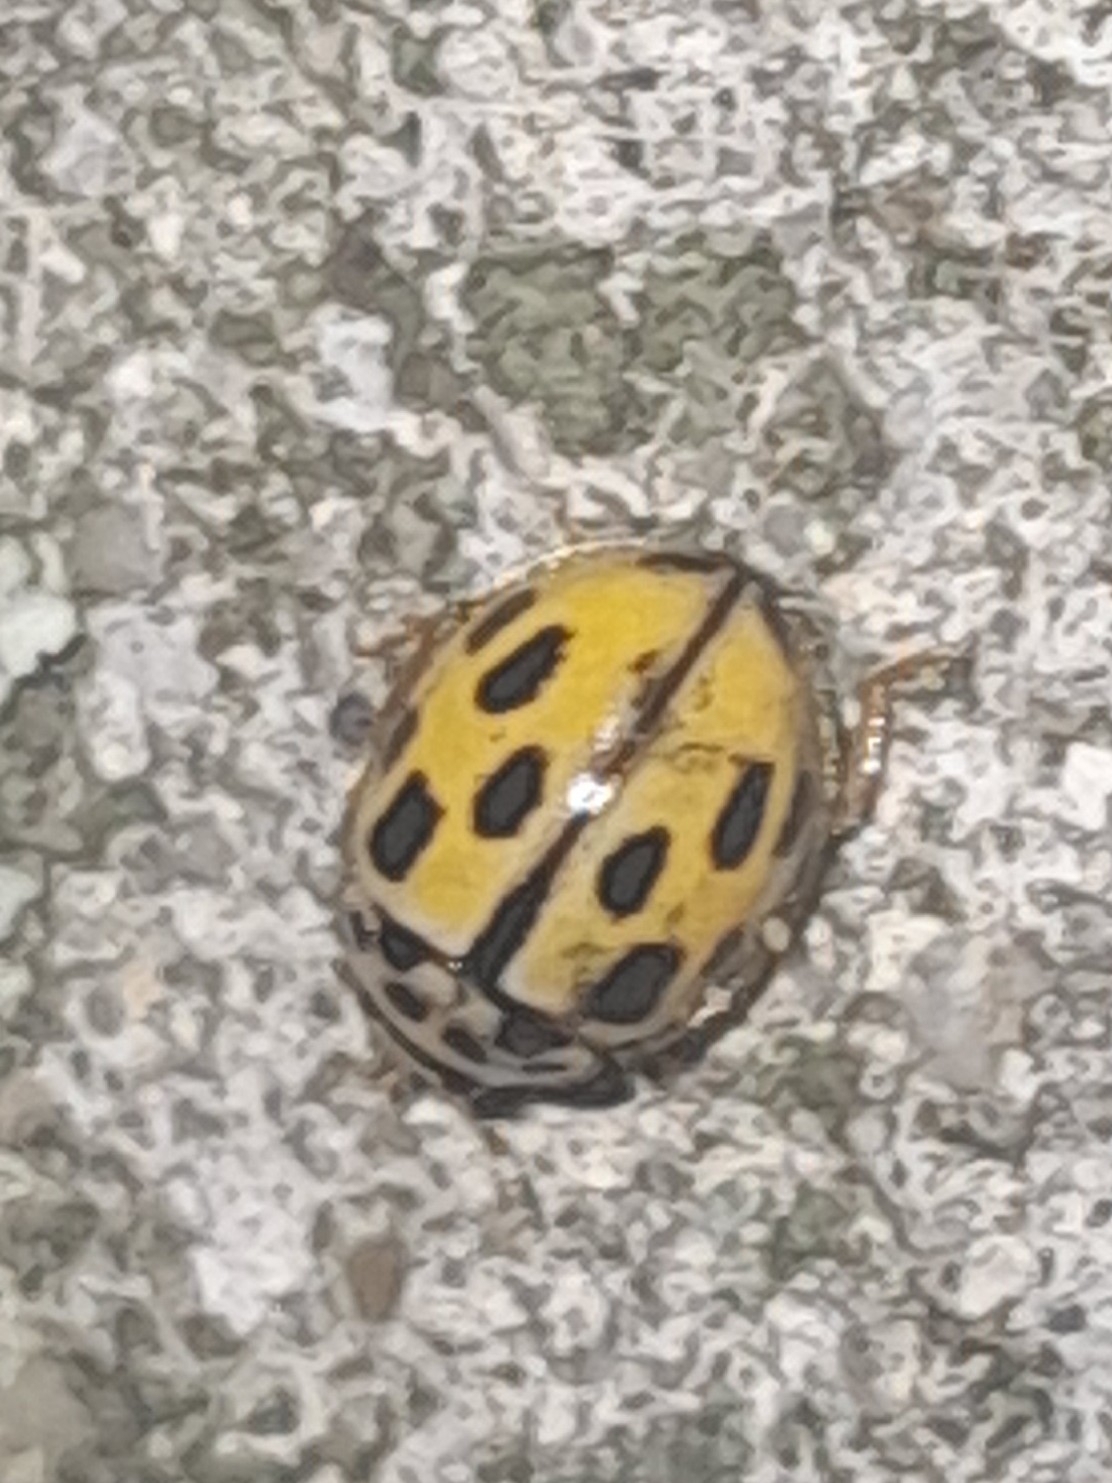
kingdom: Animalia
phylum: Arthropoda
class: Insecta
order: Coleoptera
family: Coccinellidae
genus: Propylaea
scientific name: Propylaea quatuordecimpunctata
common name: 14-spotted ladybird beetle
